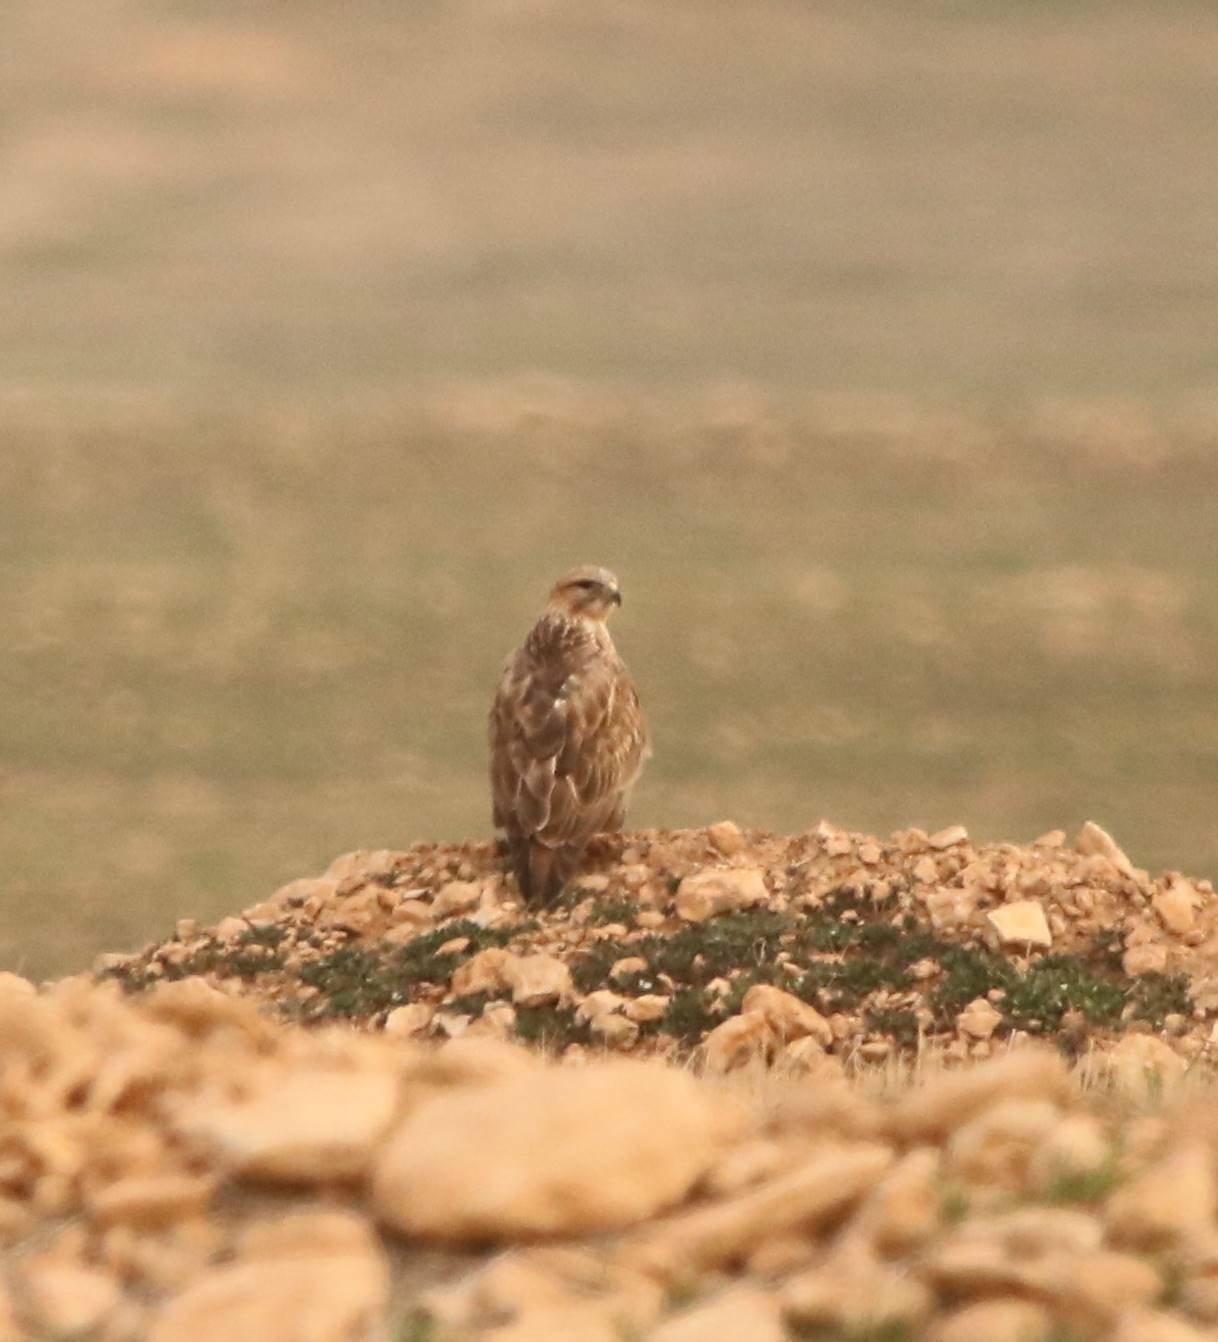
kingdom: Animalia
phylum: Chordata
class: Aves
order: Accipitriformes
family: Accipitridae
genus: Buteo
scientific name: Buteo rufinus
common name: Long-legged buzzard
